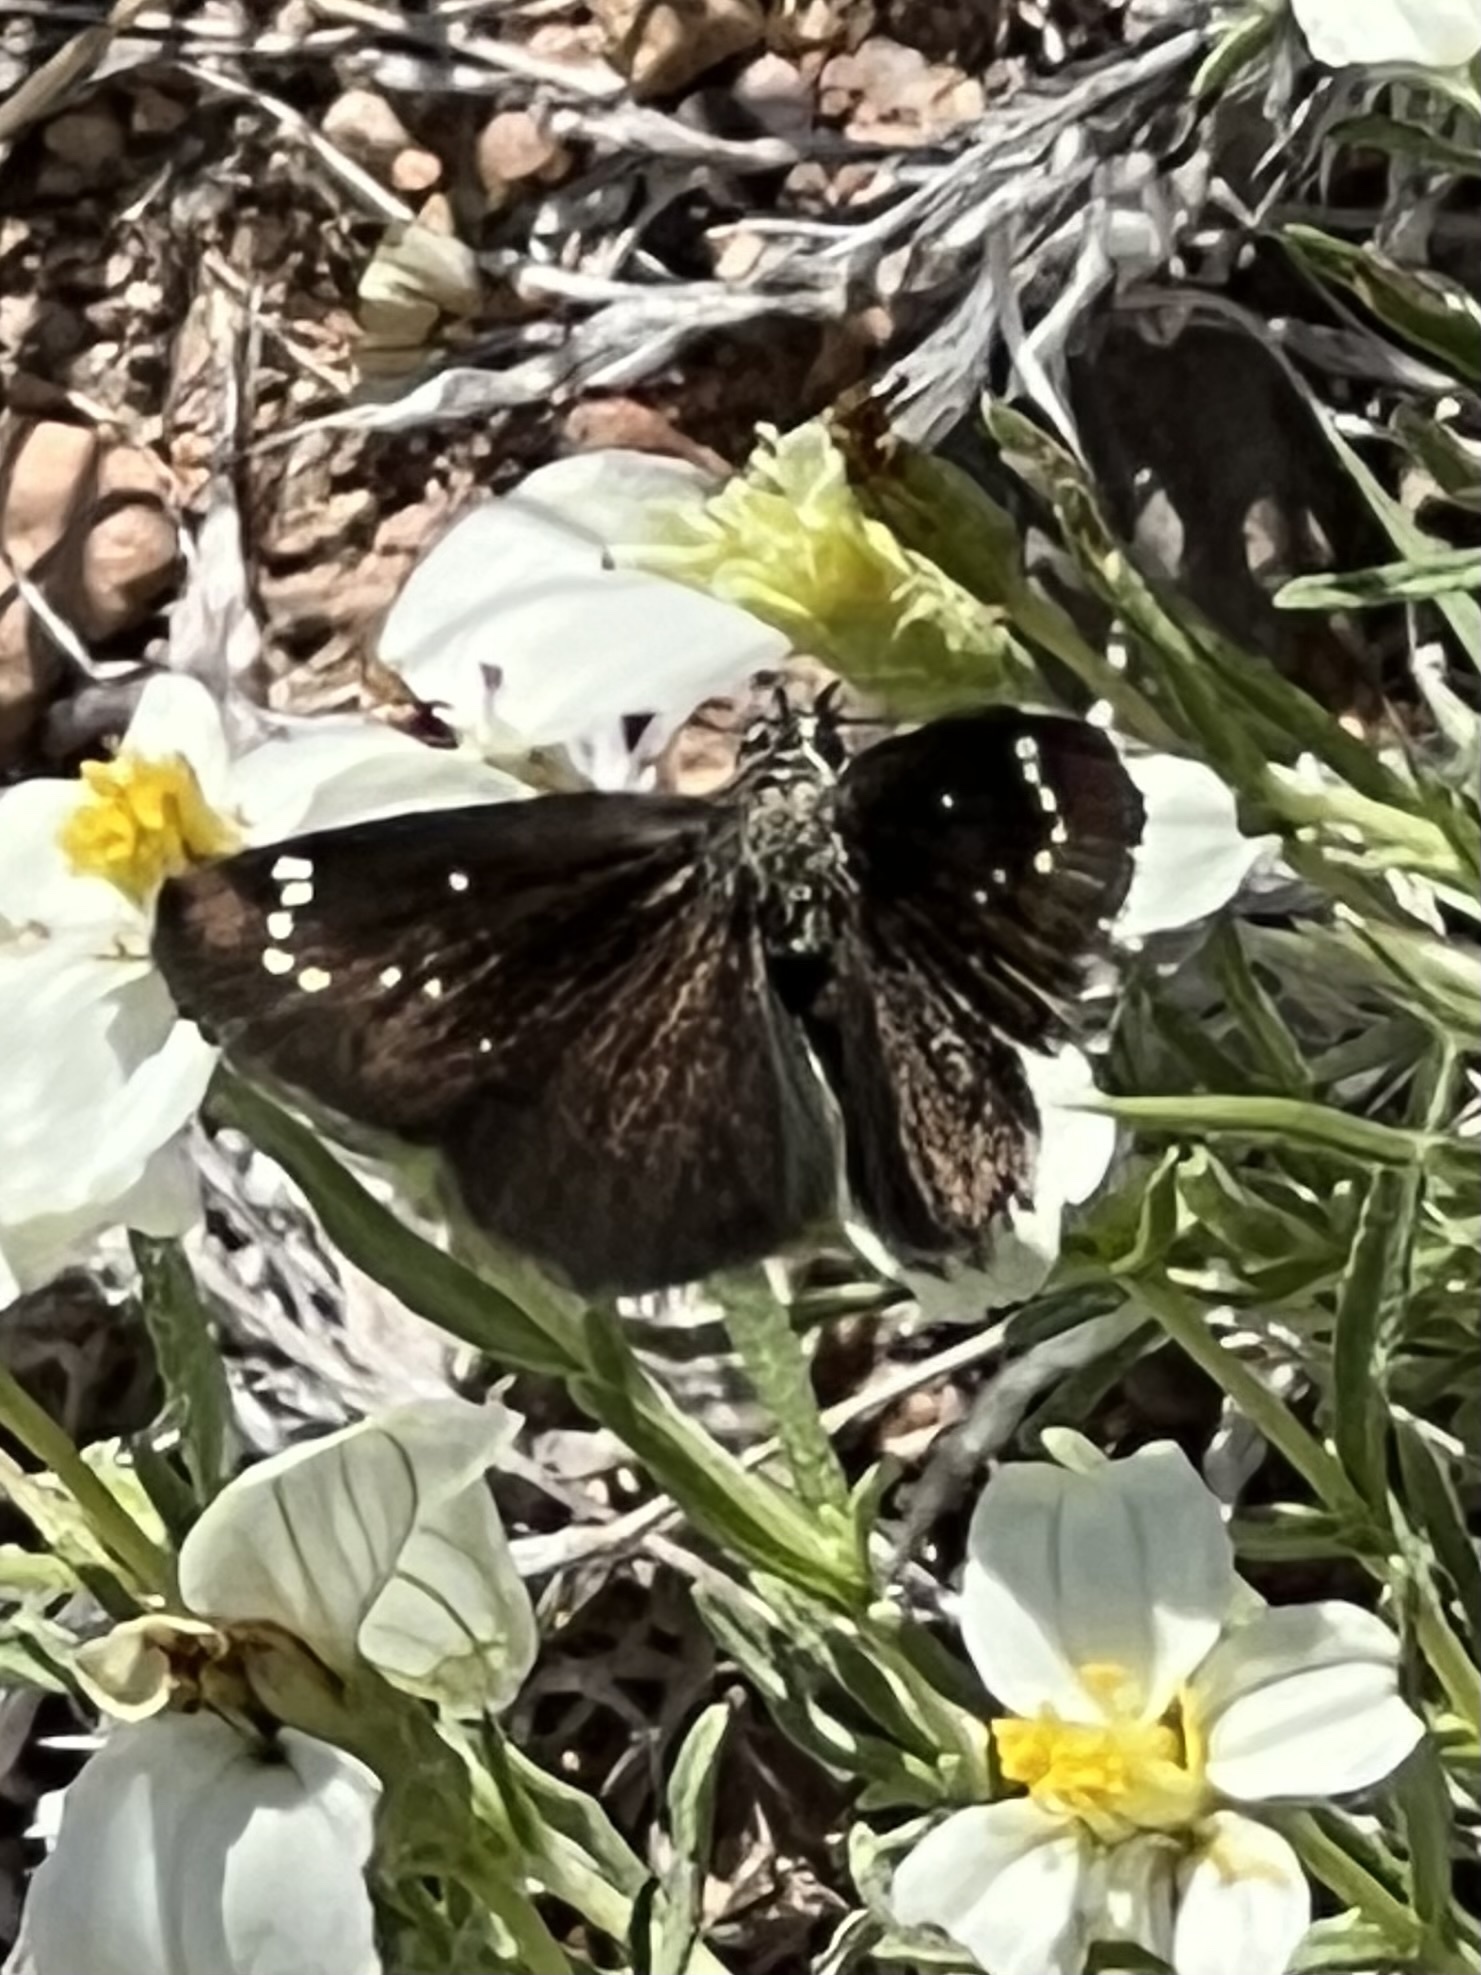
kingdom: Animalia
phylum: Arthropoda
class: Insecta
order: Lepidoptera
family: Hesperiidae
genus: Pholisora
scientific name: Pholisora catullus
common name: Common sootywing
